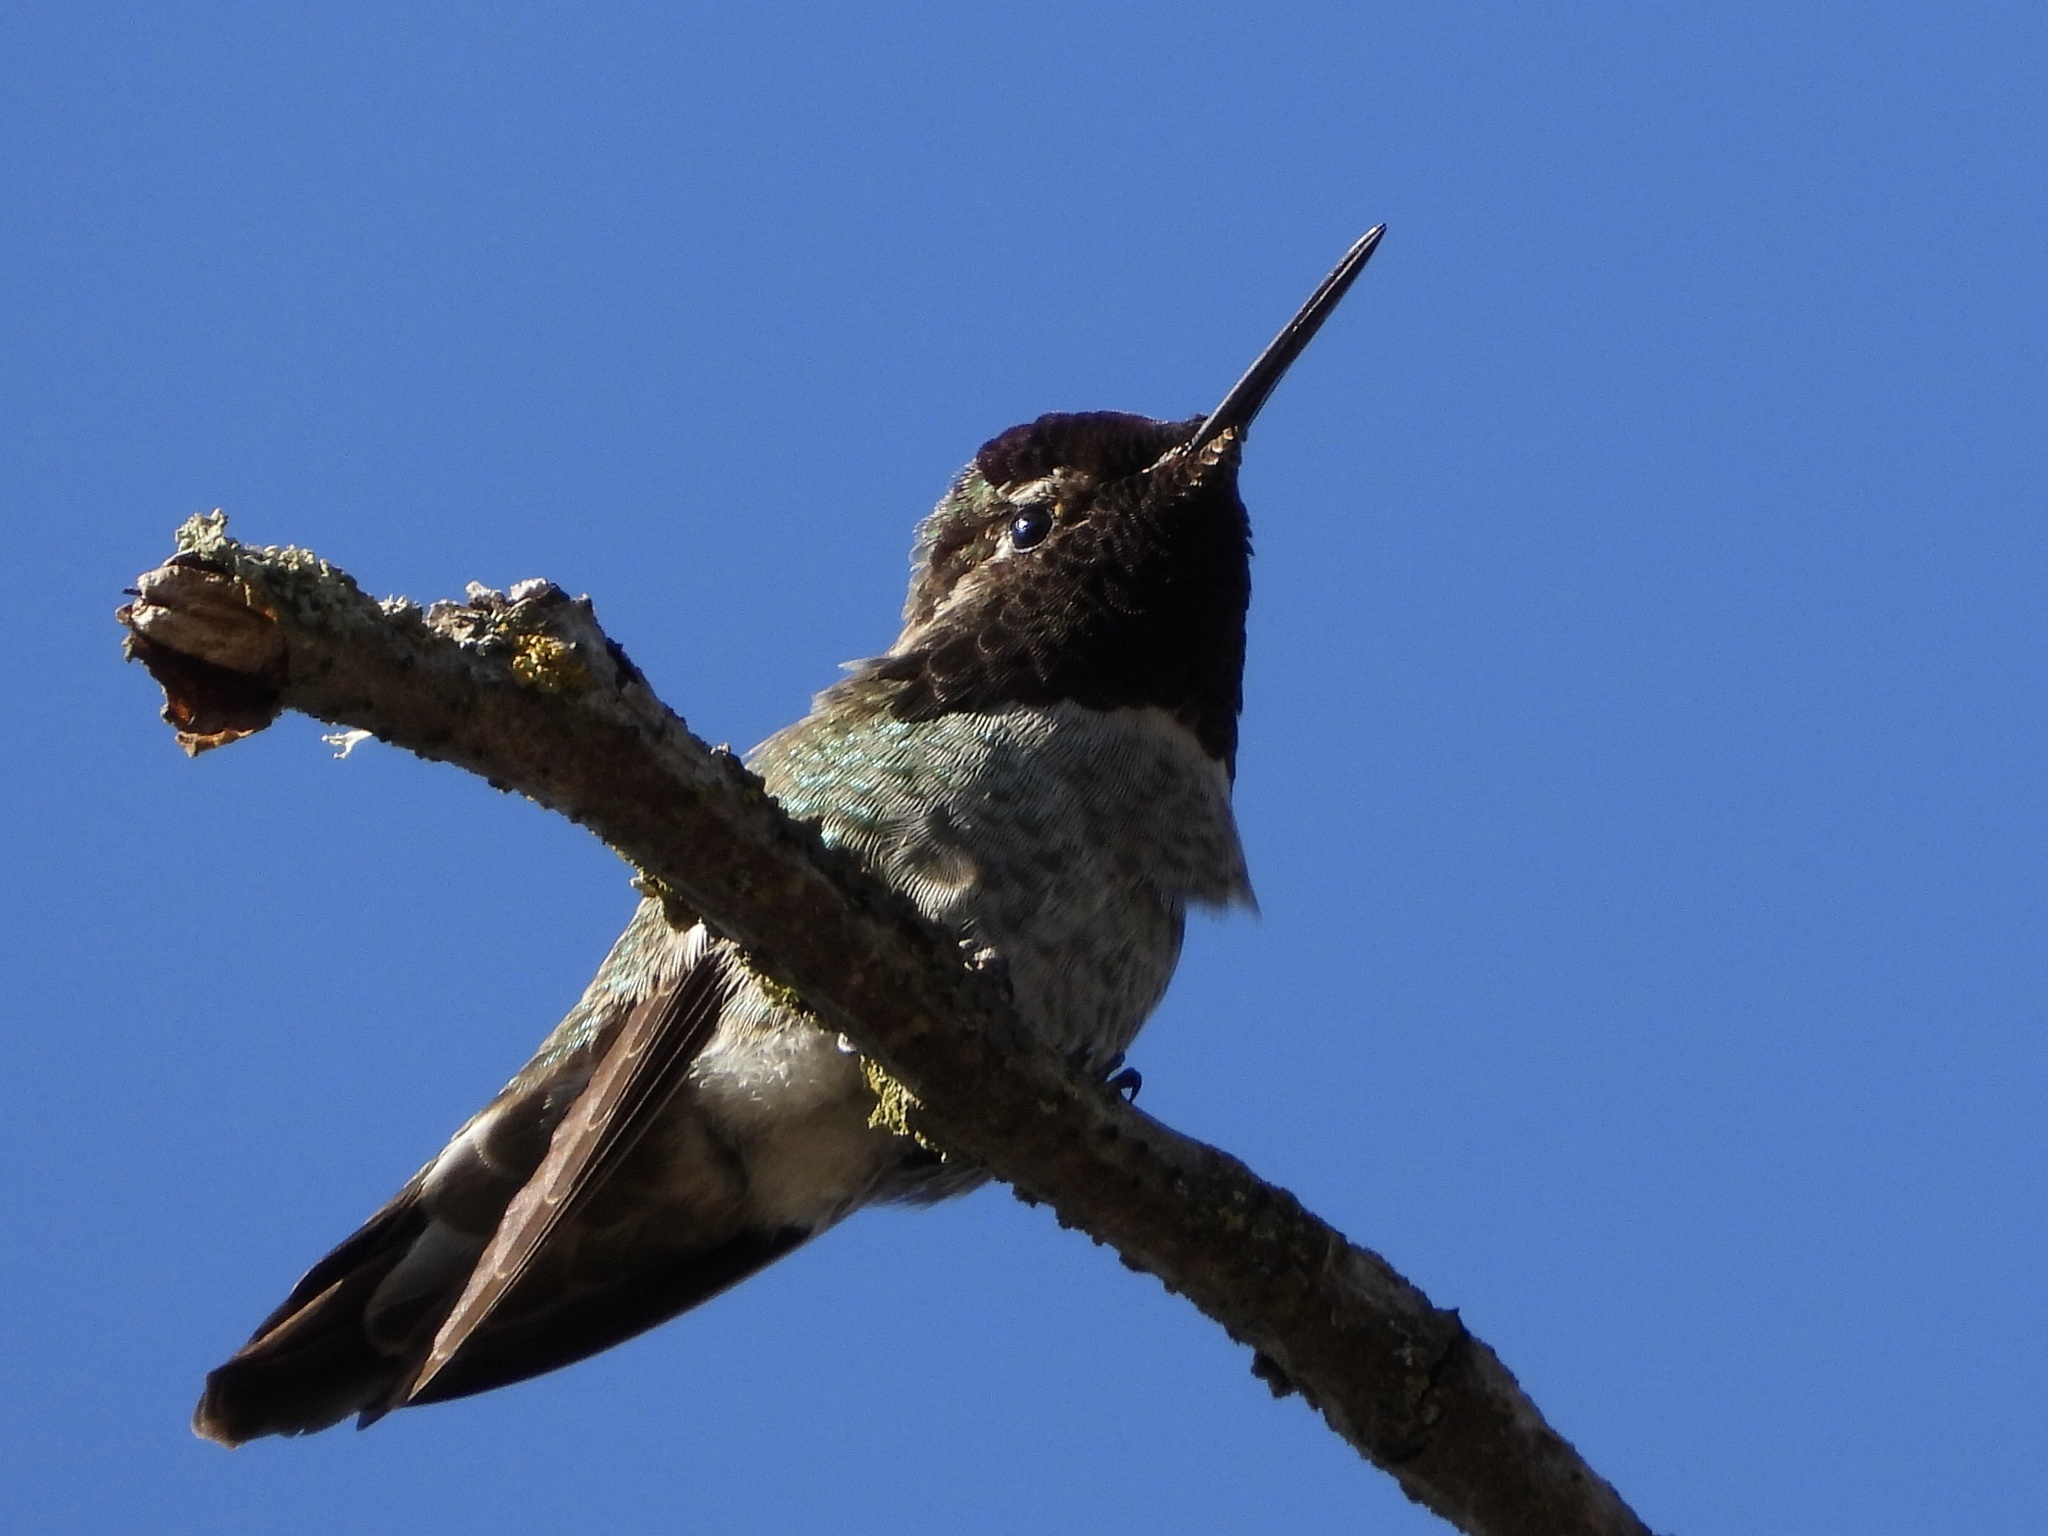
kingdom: Animalia
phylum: Chordata
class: Aves
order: Apodiformes
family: Trochilidae
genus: Calypte
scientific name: Calypte anna
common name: Anna's hummingbird
